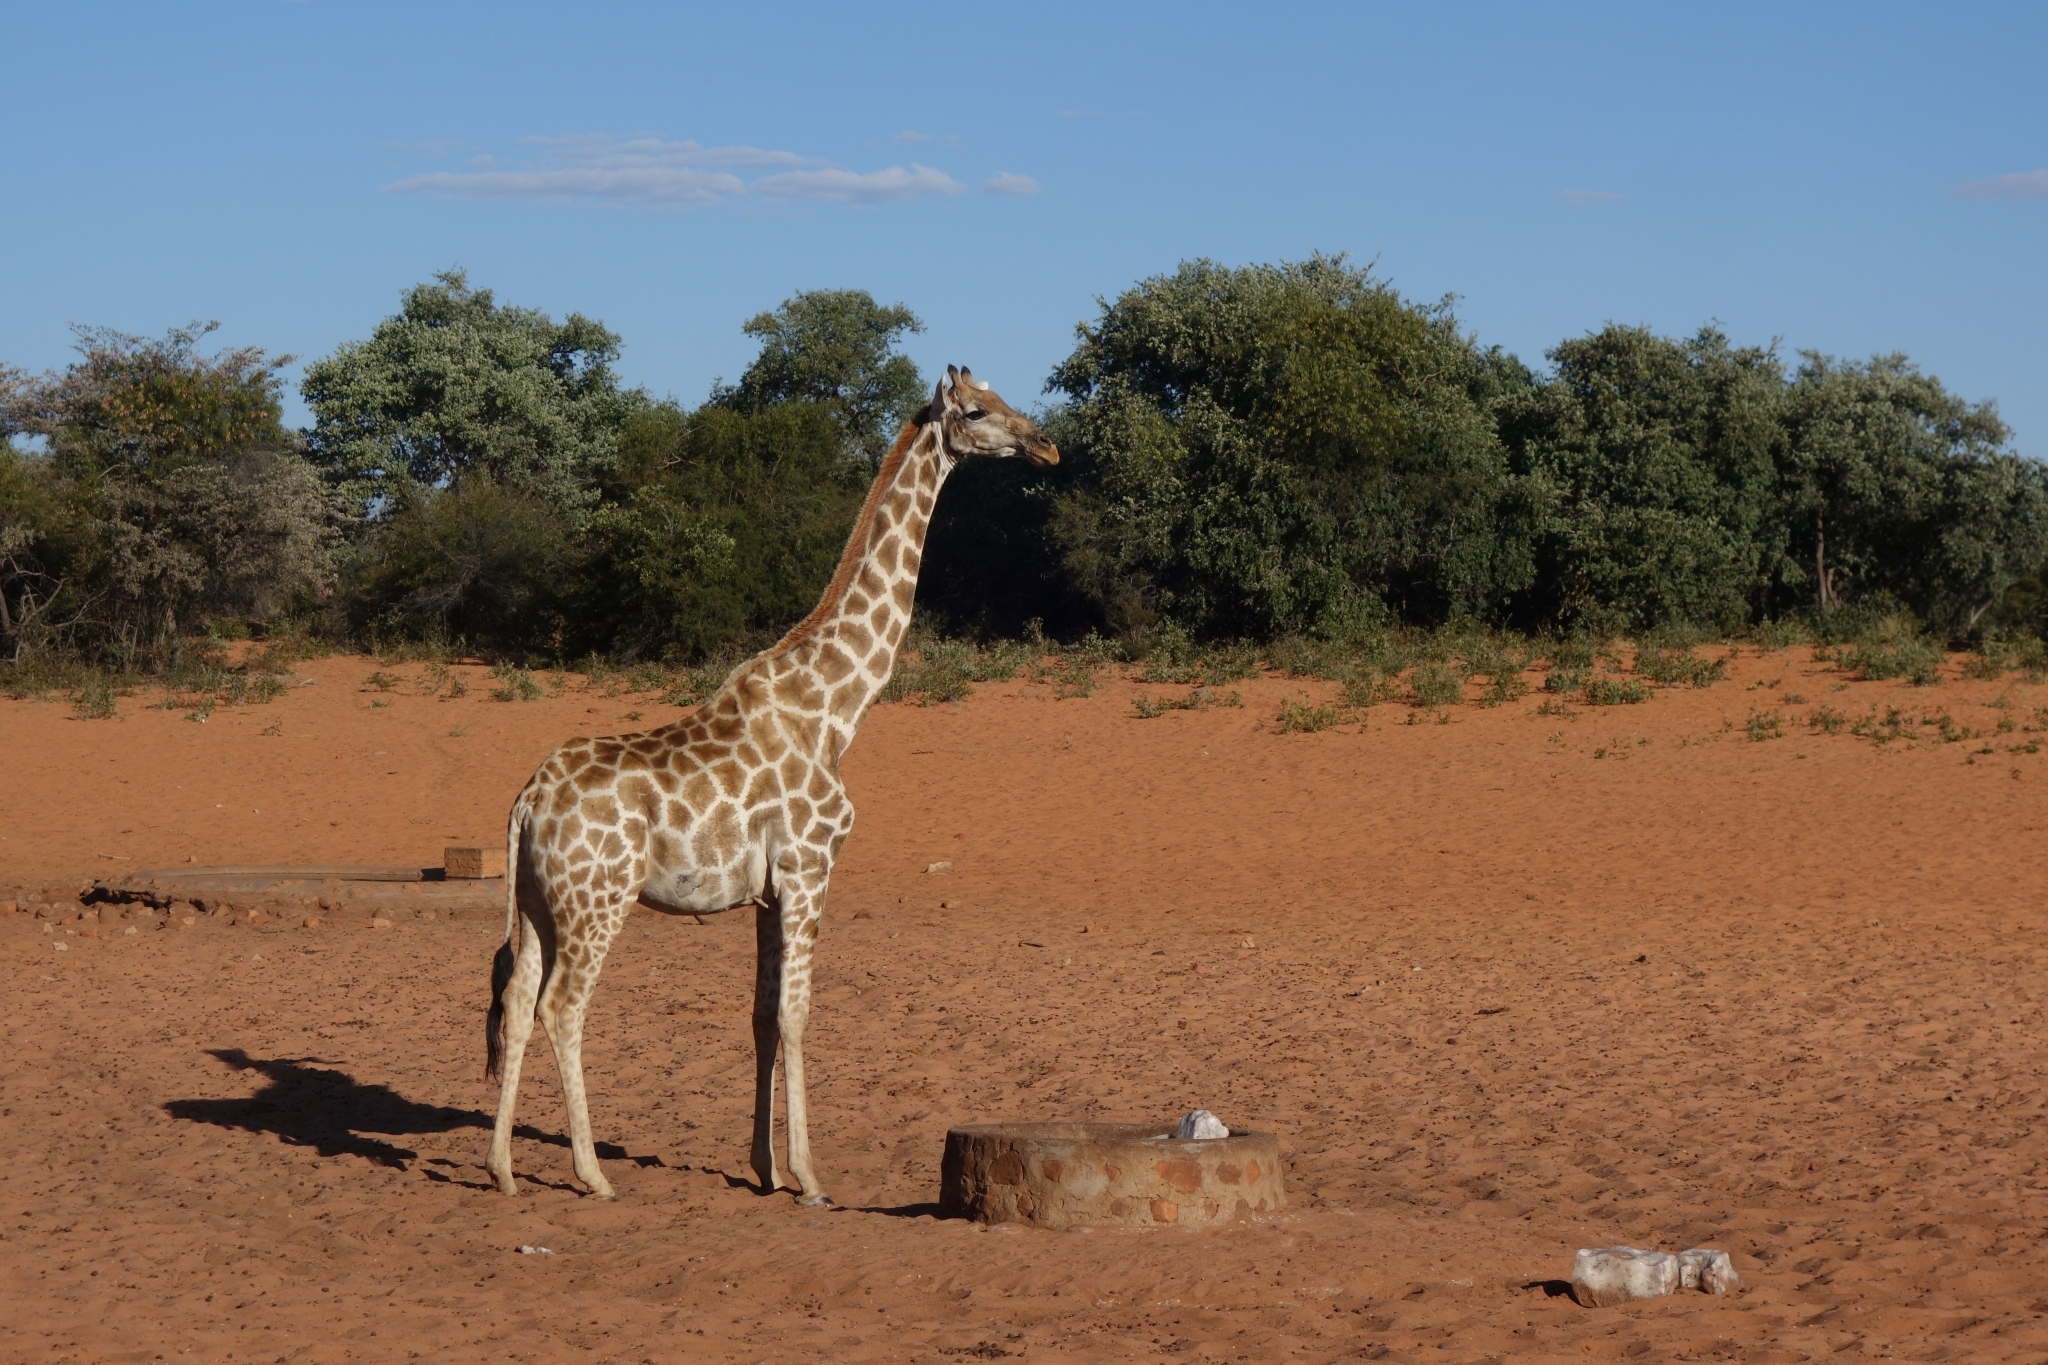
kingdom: Animalia
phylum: Chordata
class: Mammalia
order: Artiodactyla
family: Giraffidae
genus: Giraffa
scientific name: Giraffa giraffa
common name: Southern giraffe
